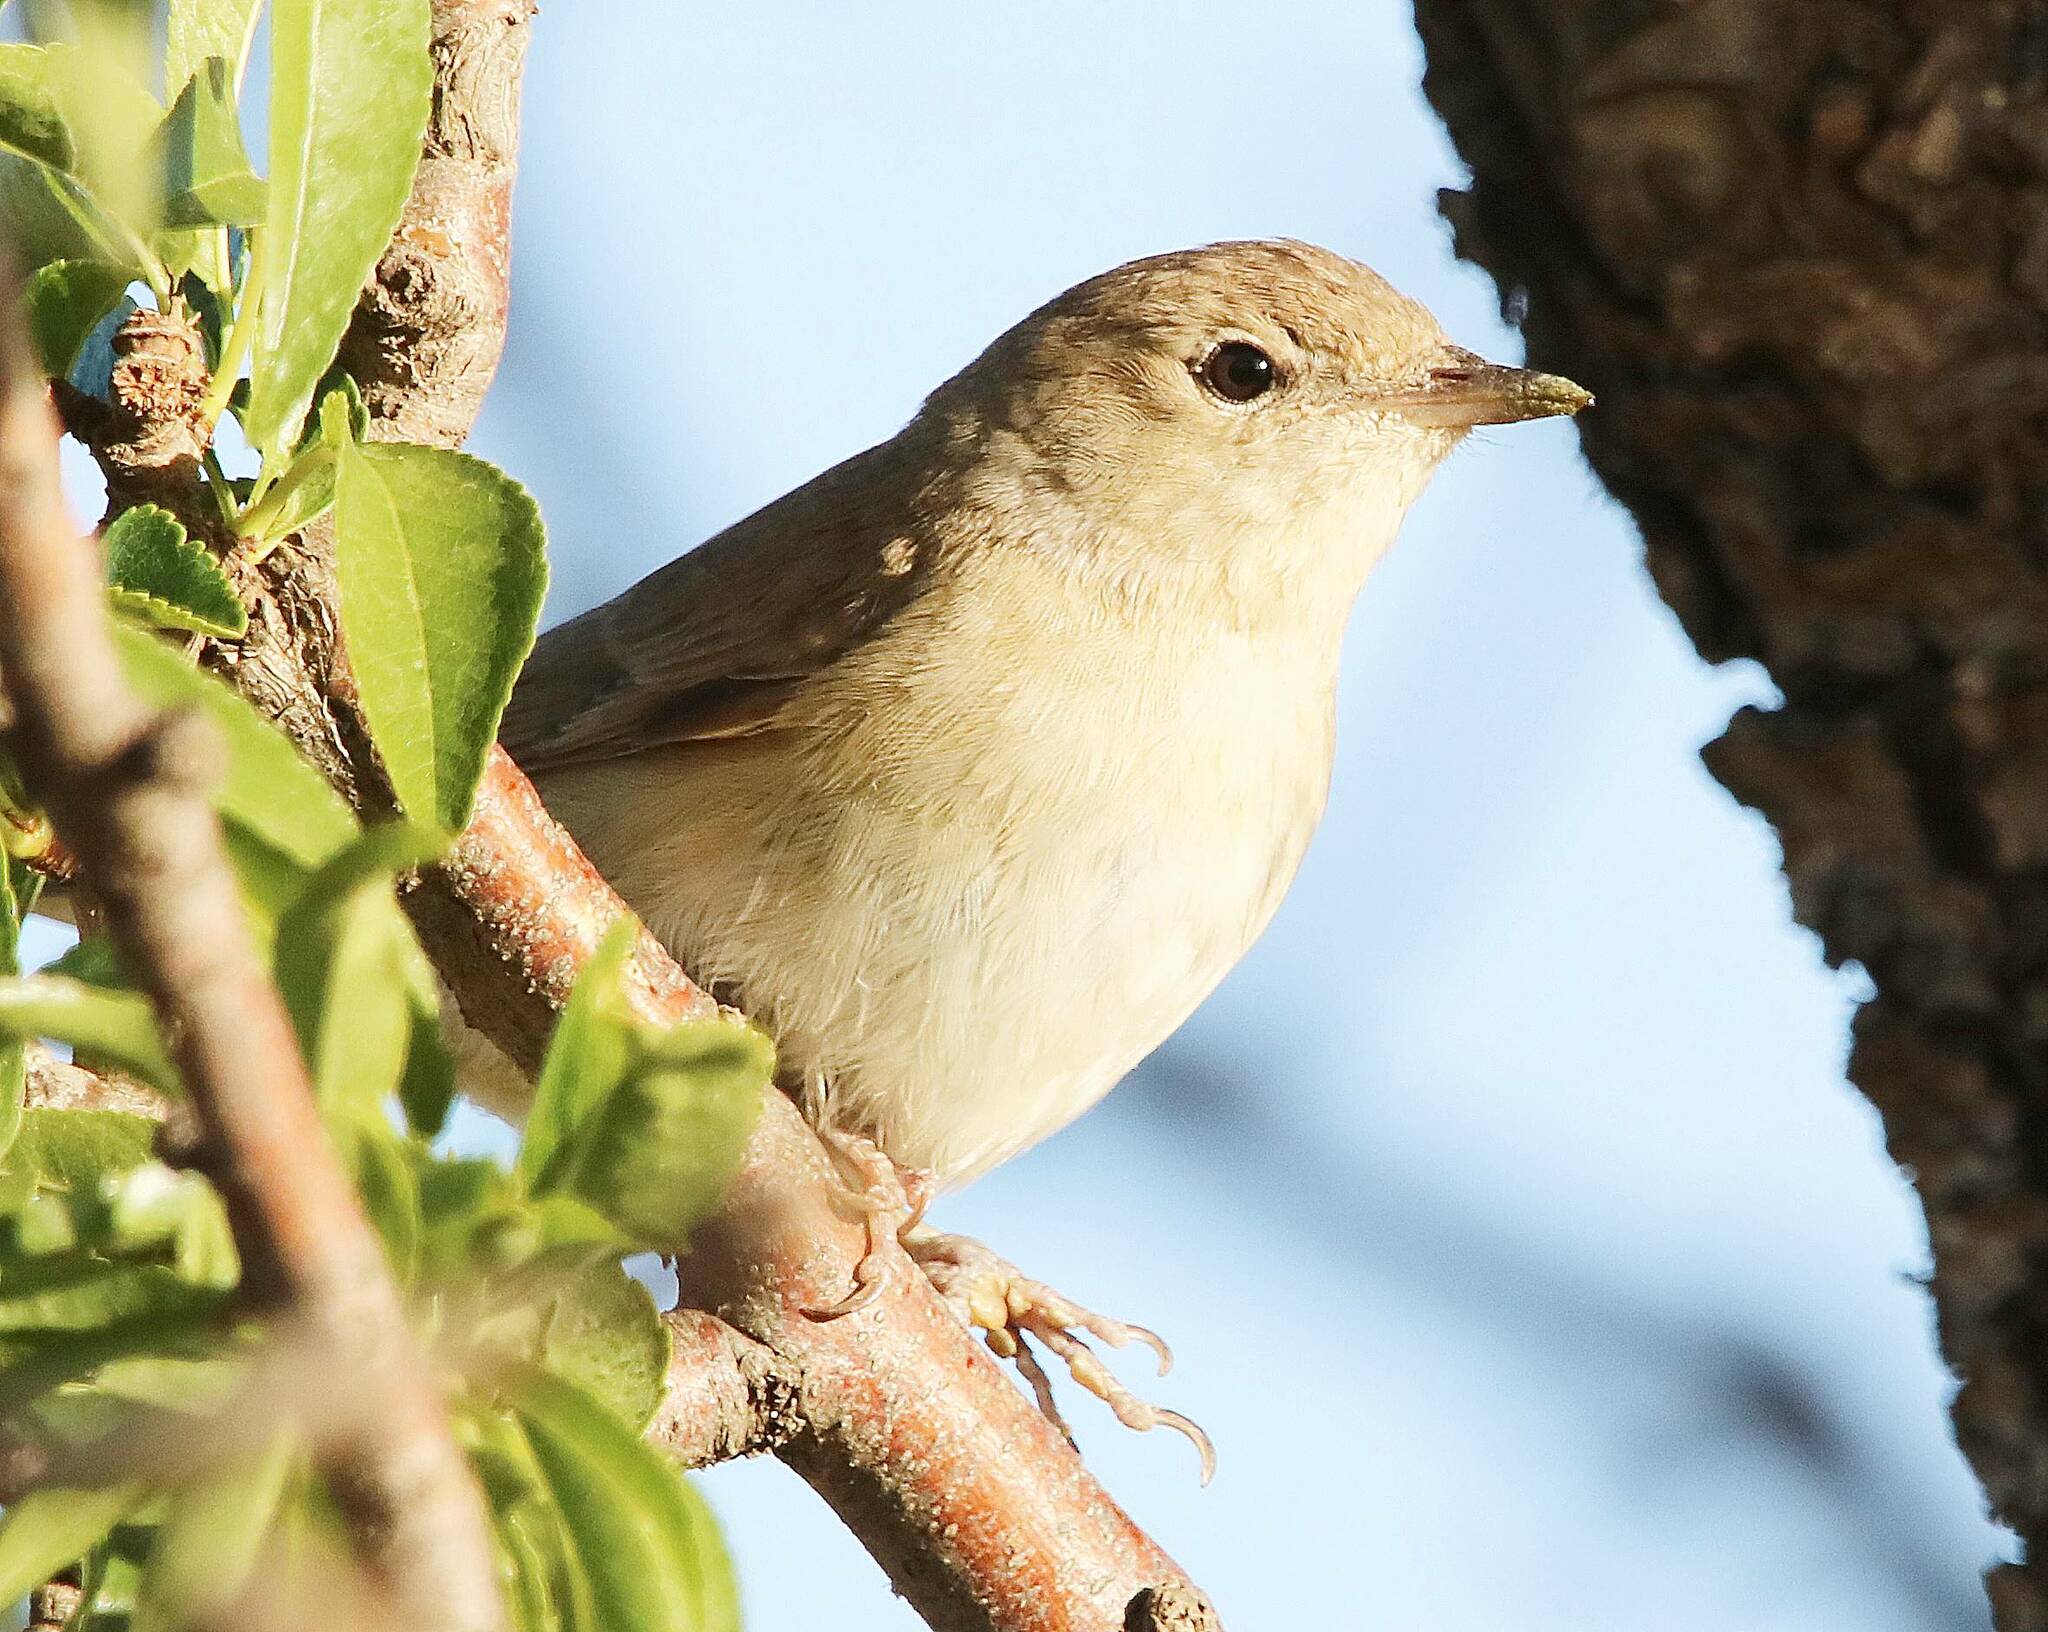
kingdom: Animalia
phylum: Chordata
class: Aves
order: Passeriformes
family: Sylviidae
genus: Sylvia
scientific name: Sylvia borin
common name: Garden warbler
